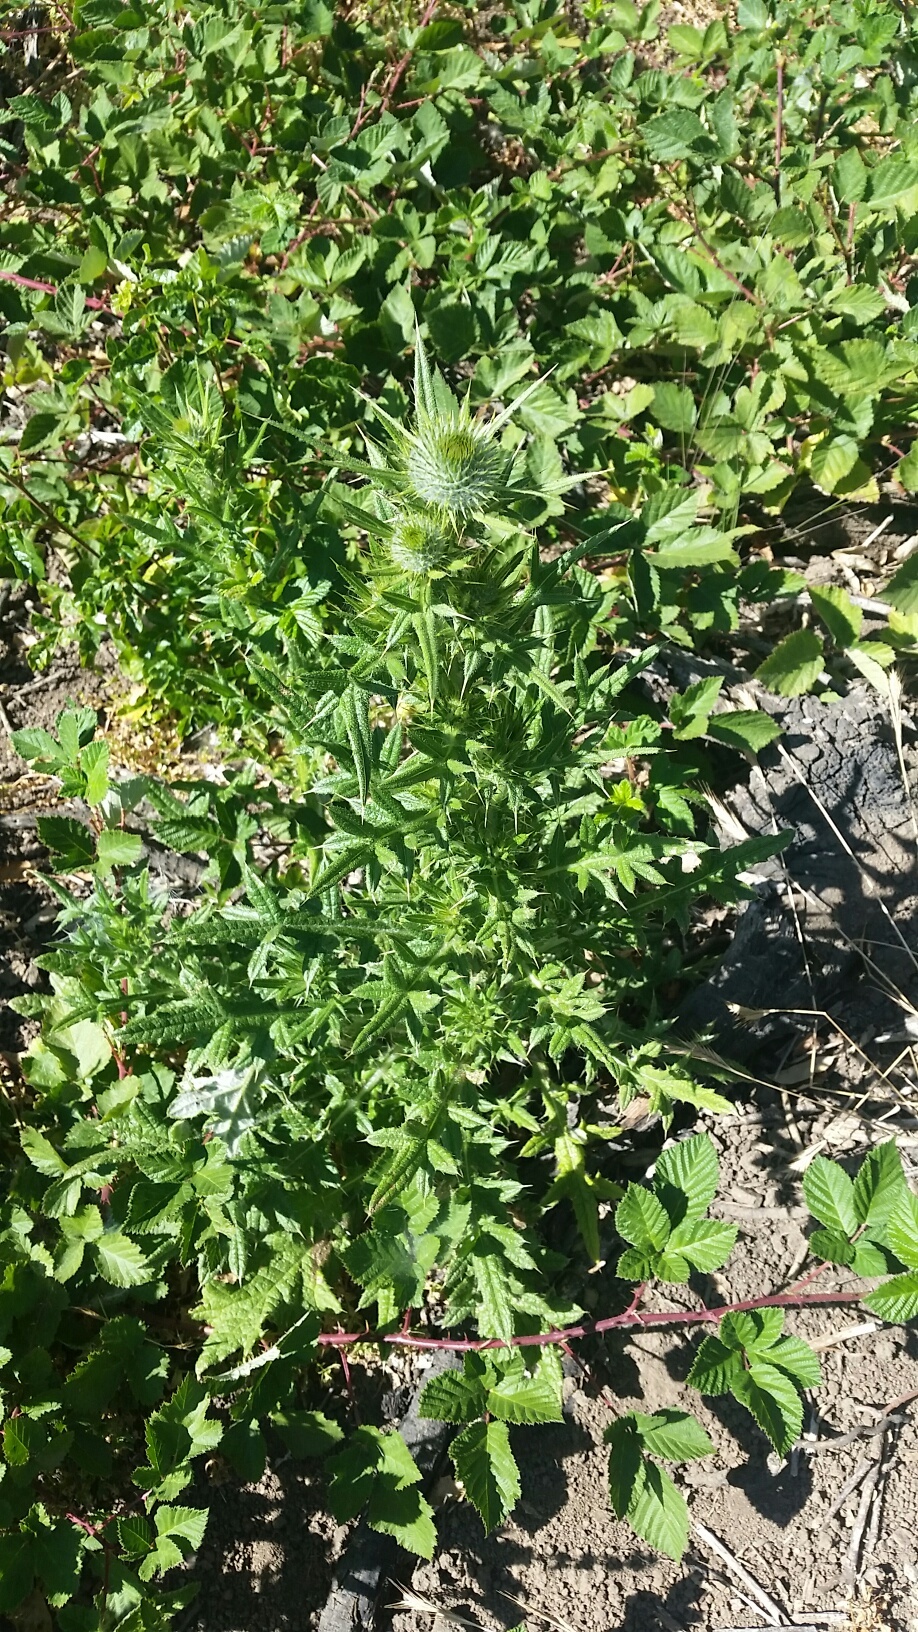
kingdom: Plantae
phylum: Tracheophyta
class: Magnoliopsida
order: Asterales
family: Asteraceae
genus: Cirsium
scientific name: Cirsium vulgare
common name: Bull thistle
